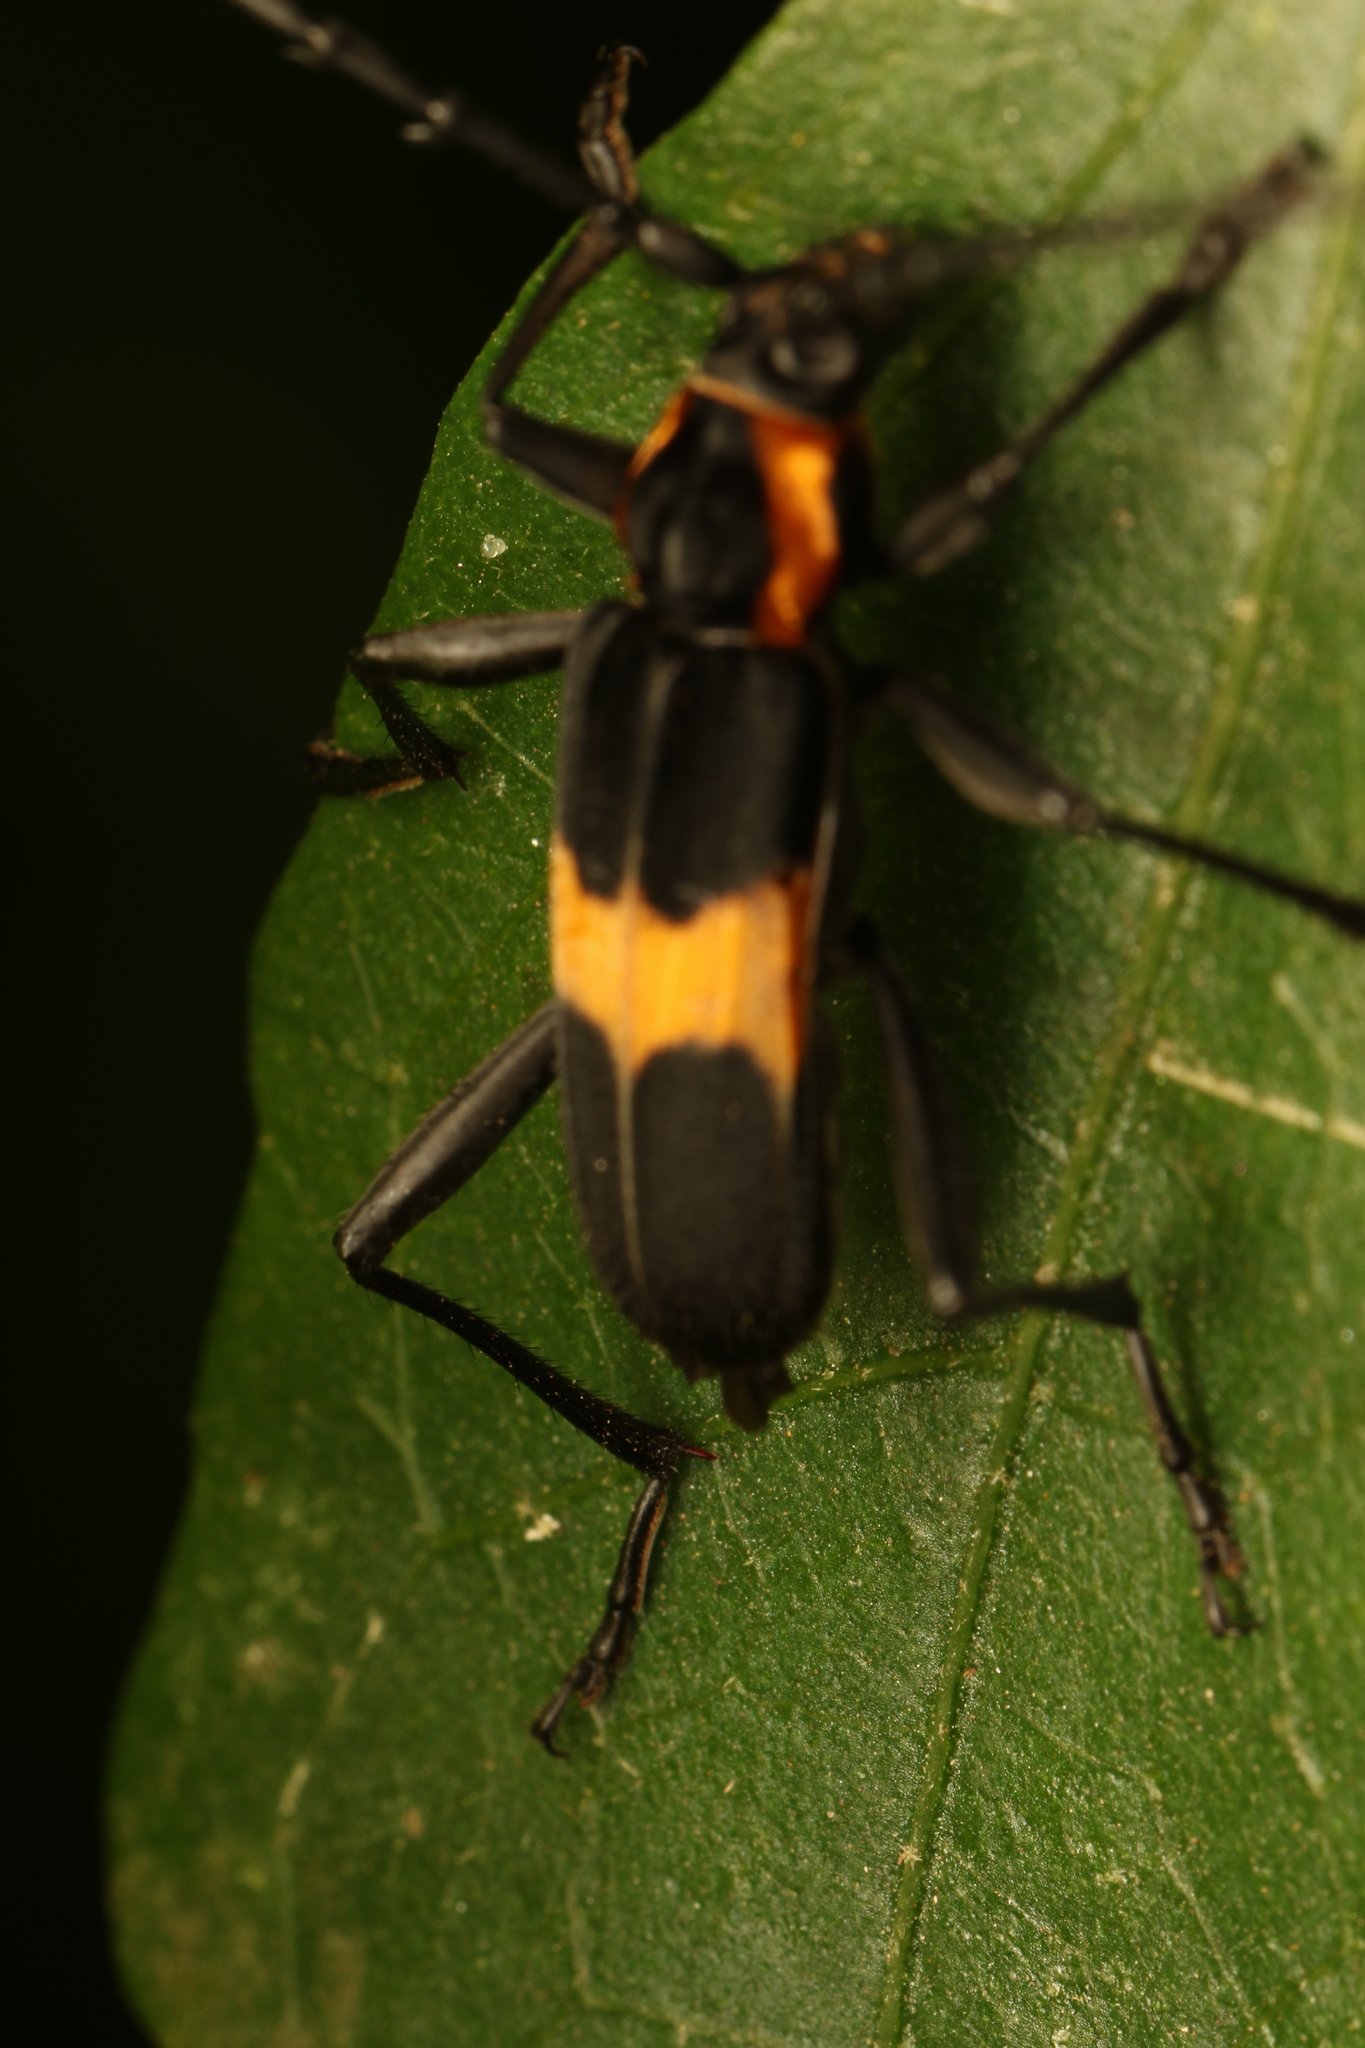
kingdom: Animalia
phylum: Arthropoda
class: Insecta
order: Coleoptera
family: Cerambycidae
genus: Mallosoma
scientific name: Mallosoma zonatum
